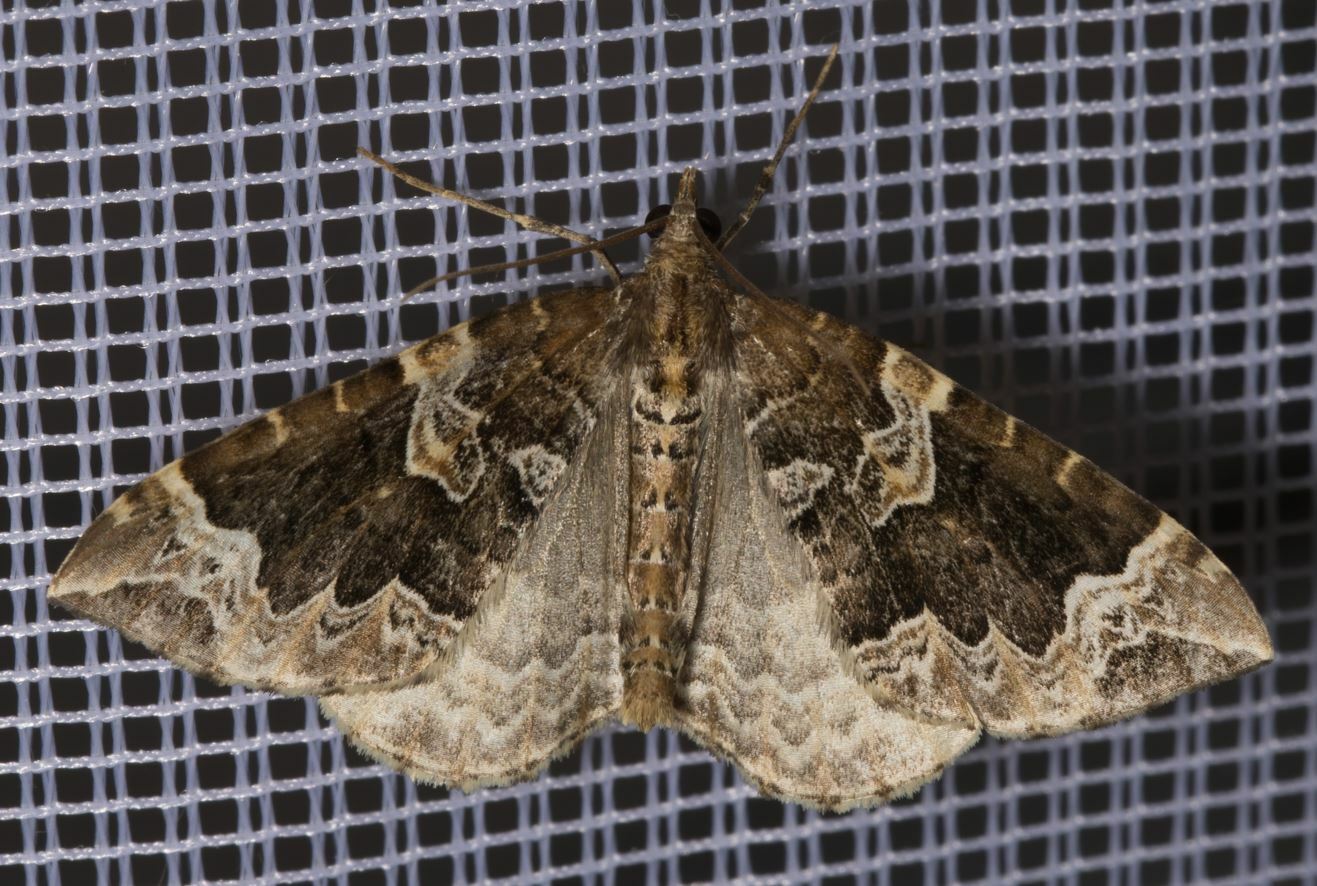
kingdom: Animalia
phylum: Arthropoda
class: Insecta
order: Lepidoptera
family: Geometridae
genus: Eulithis
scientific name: Eulithis prunata
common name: Phoenix
